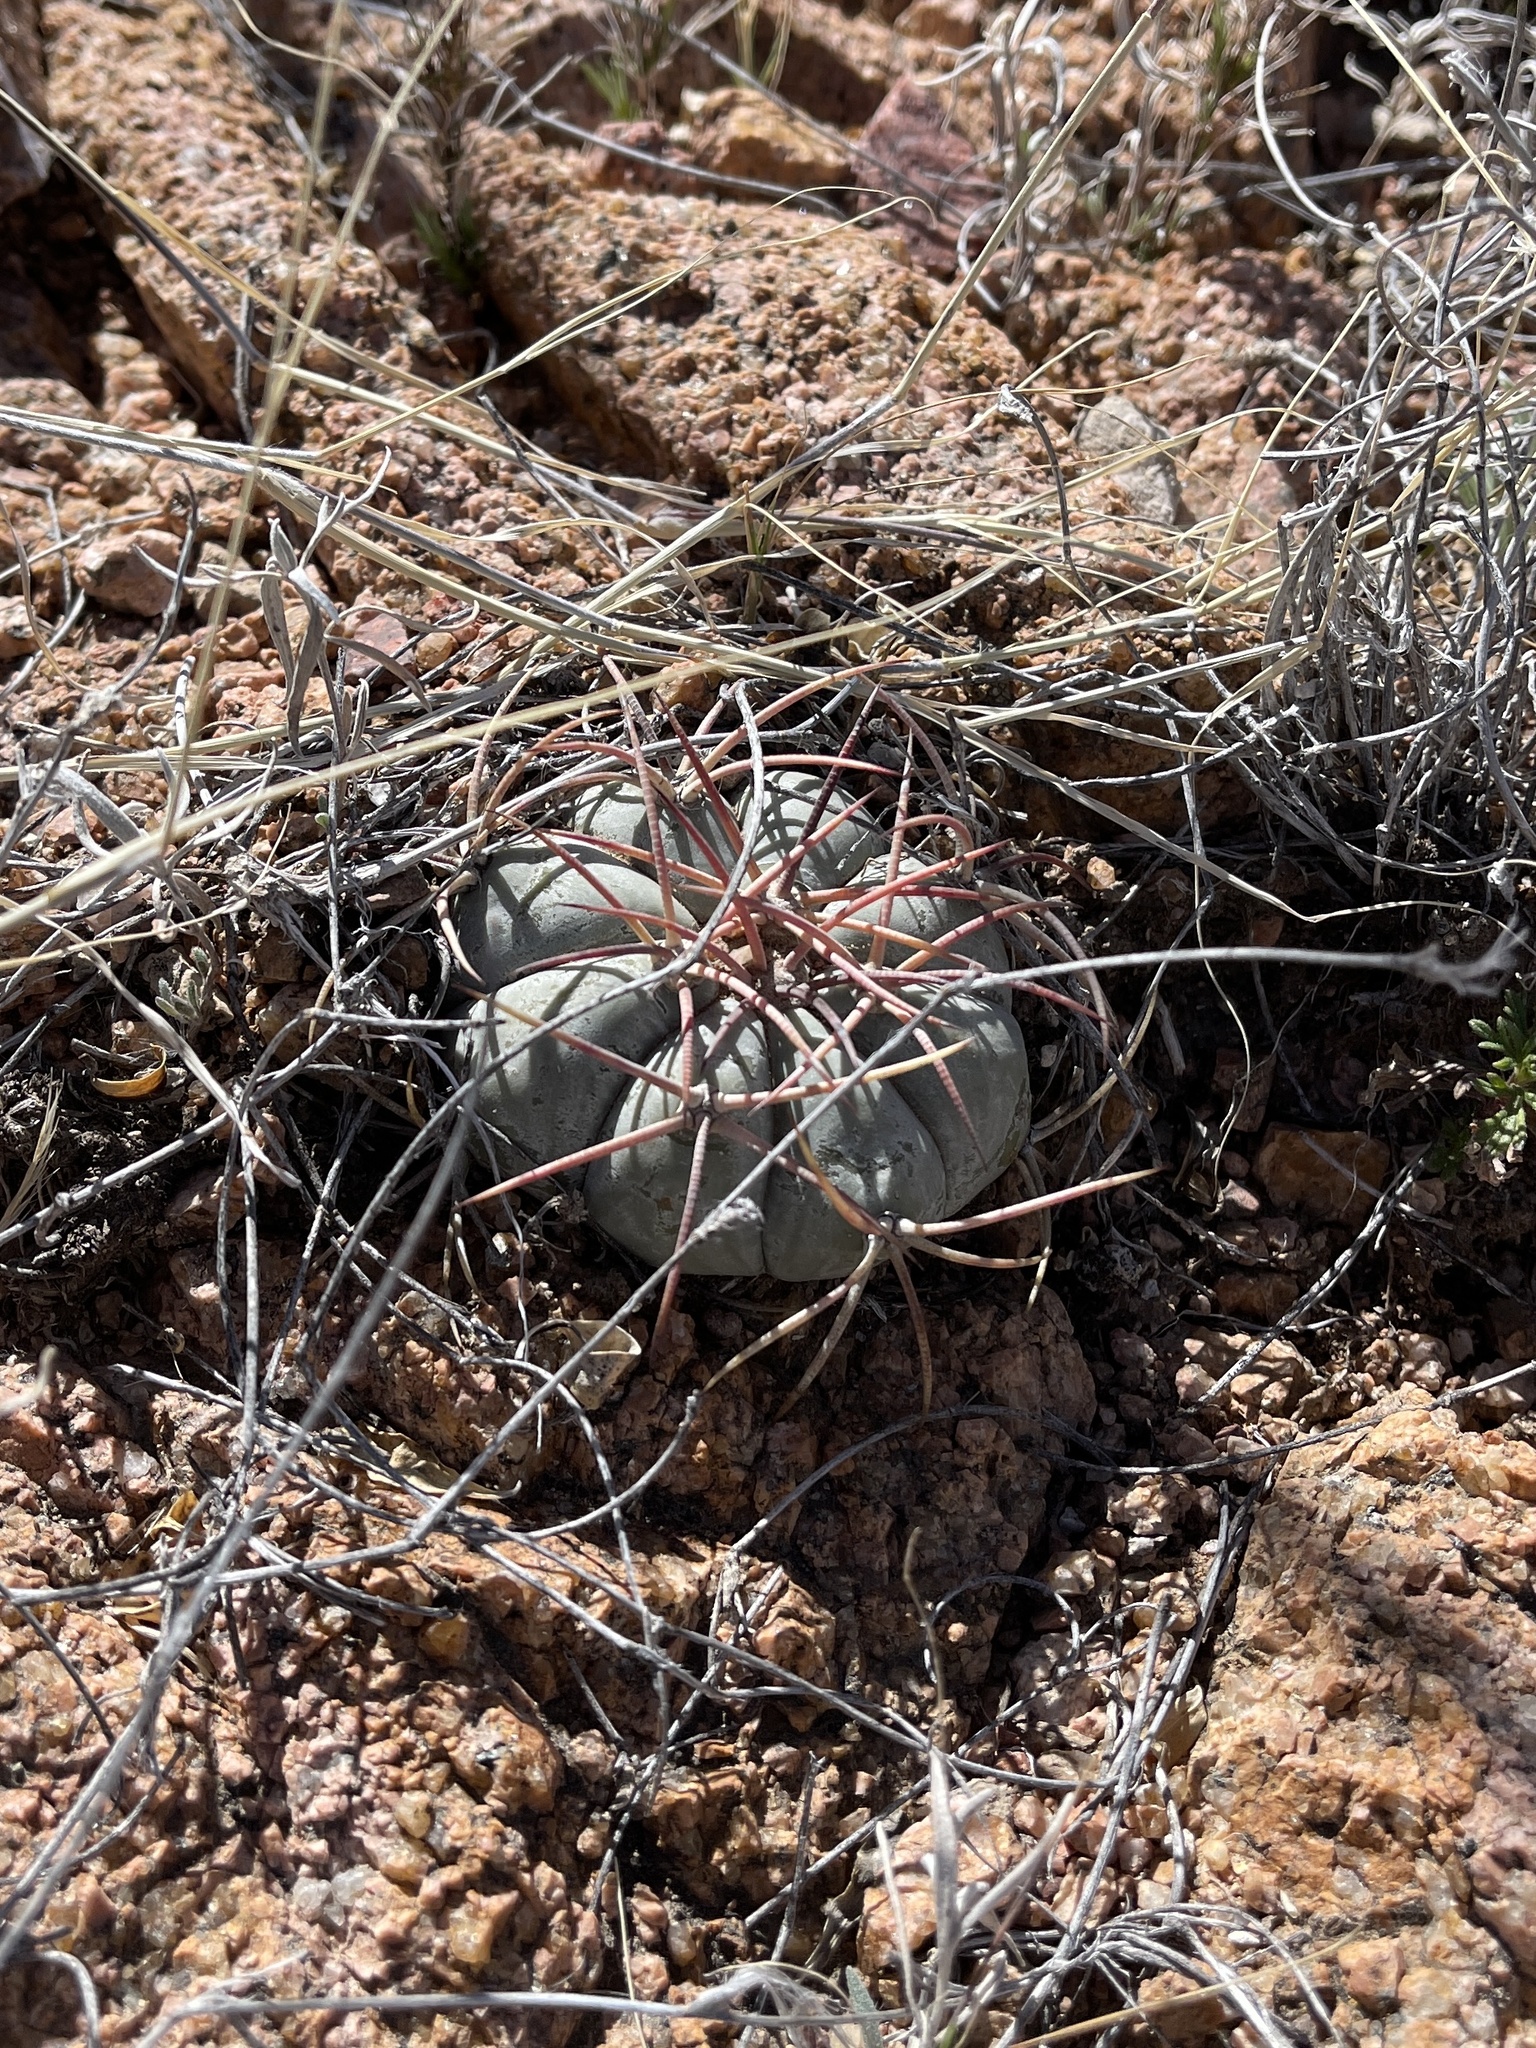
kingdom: Plantae
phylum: Tracheophyta
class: Magnoliopsida
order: Caryophyllales
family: Cactaceae
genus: Echinocactus
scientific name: Echinocactus horizonthalonius
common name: Devilshead
